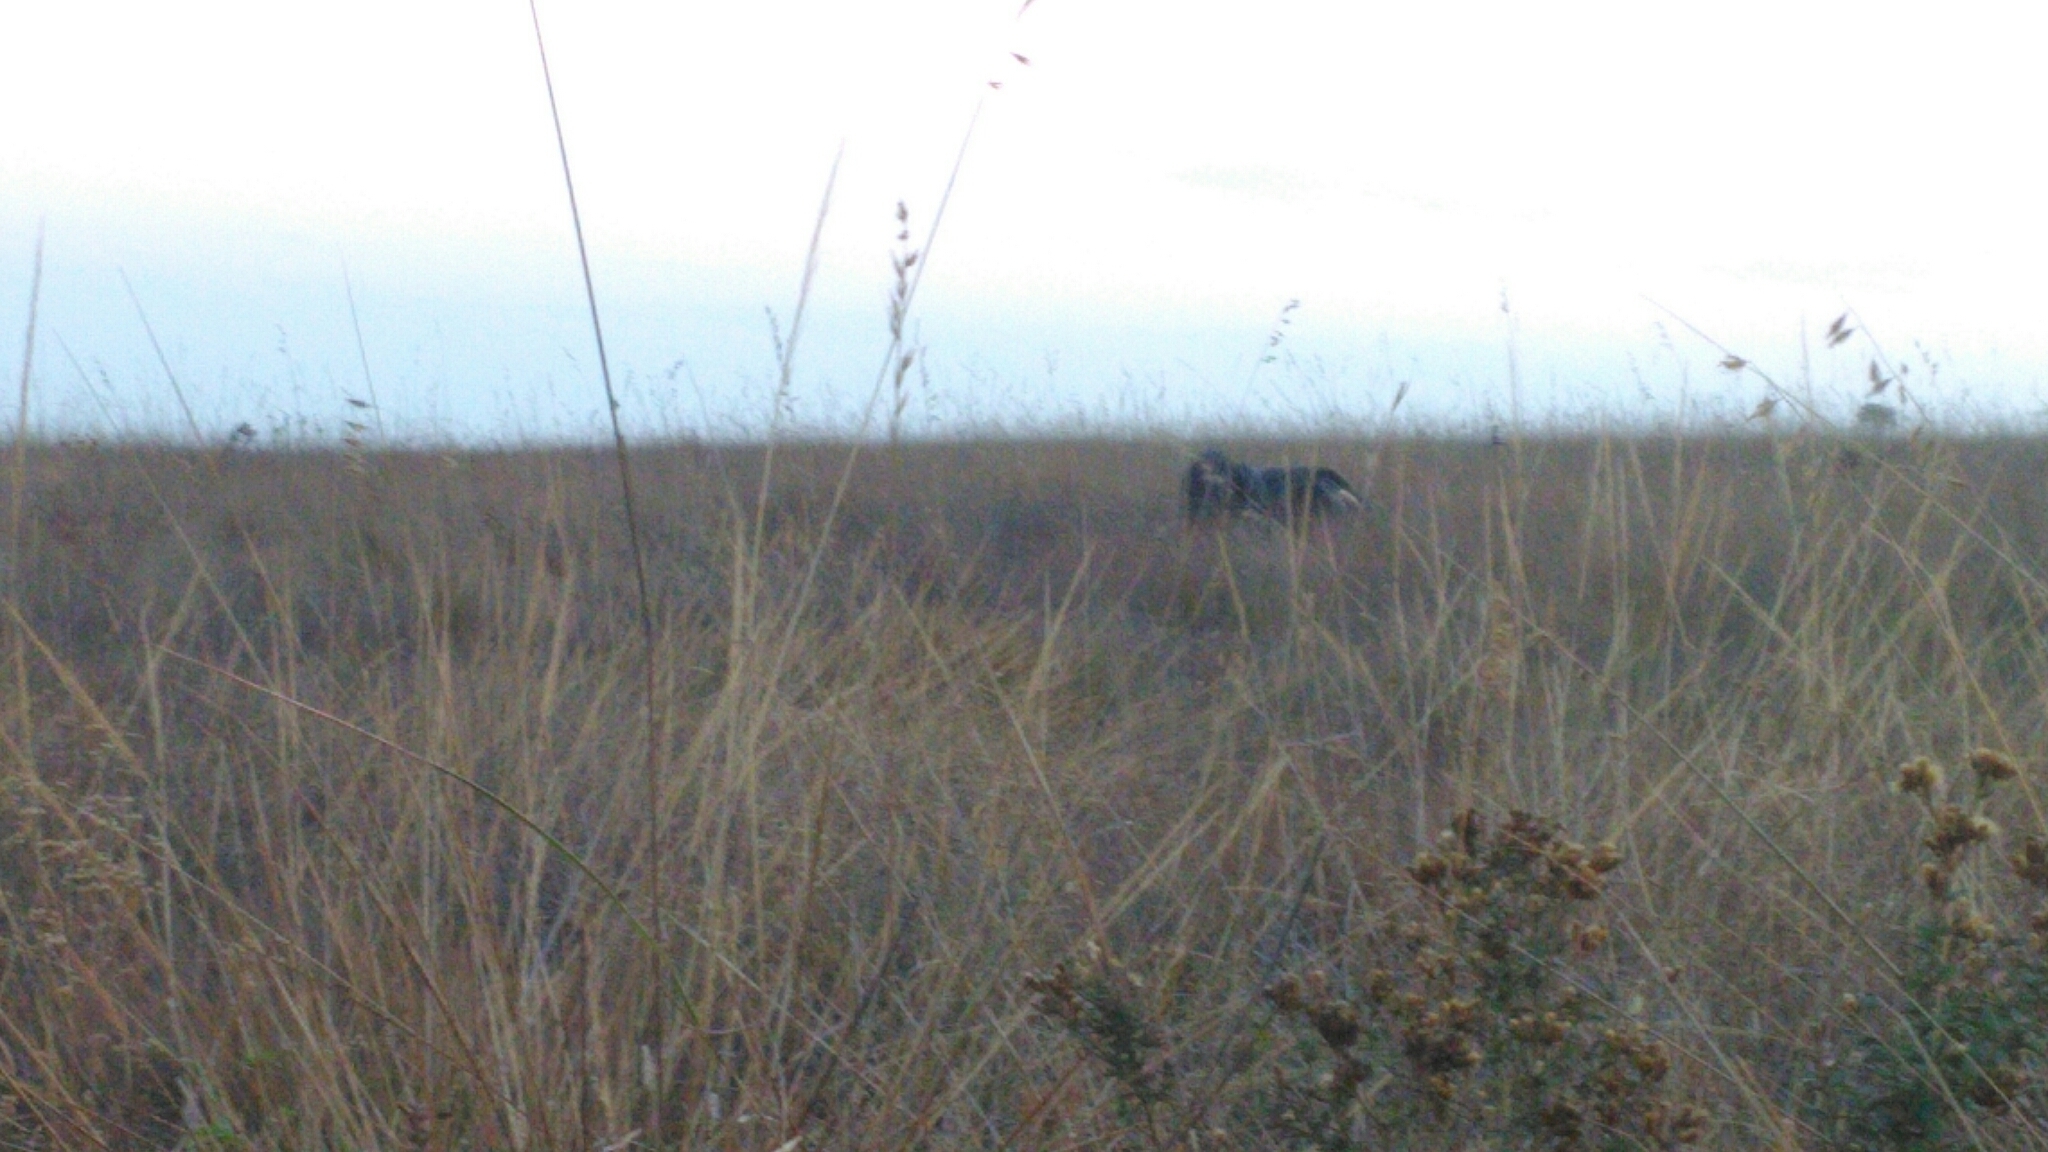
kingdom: Animalia
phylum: Chordata
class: Mammalia
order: Pilosa
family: Myrmecophagidae
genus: Myrmecophaga
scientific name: Myrmecophaga tridactyla
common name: Giant anteater
